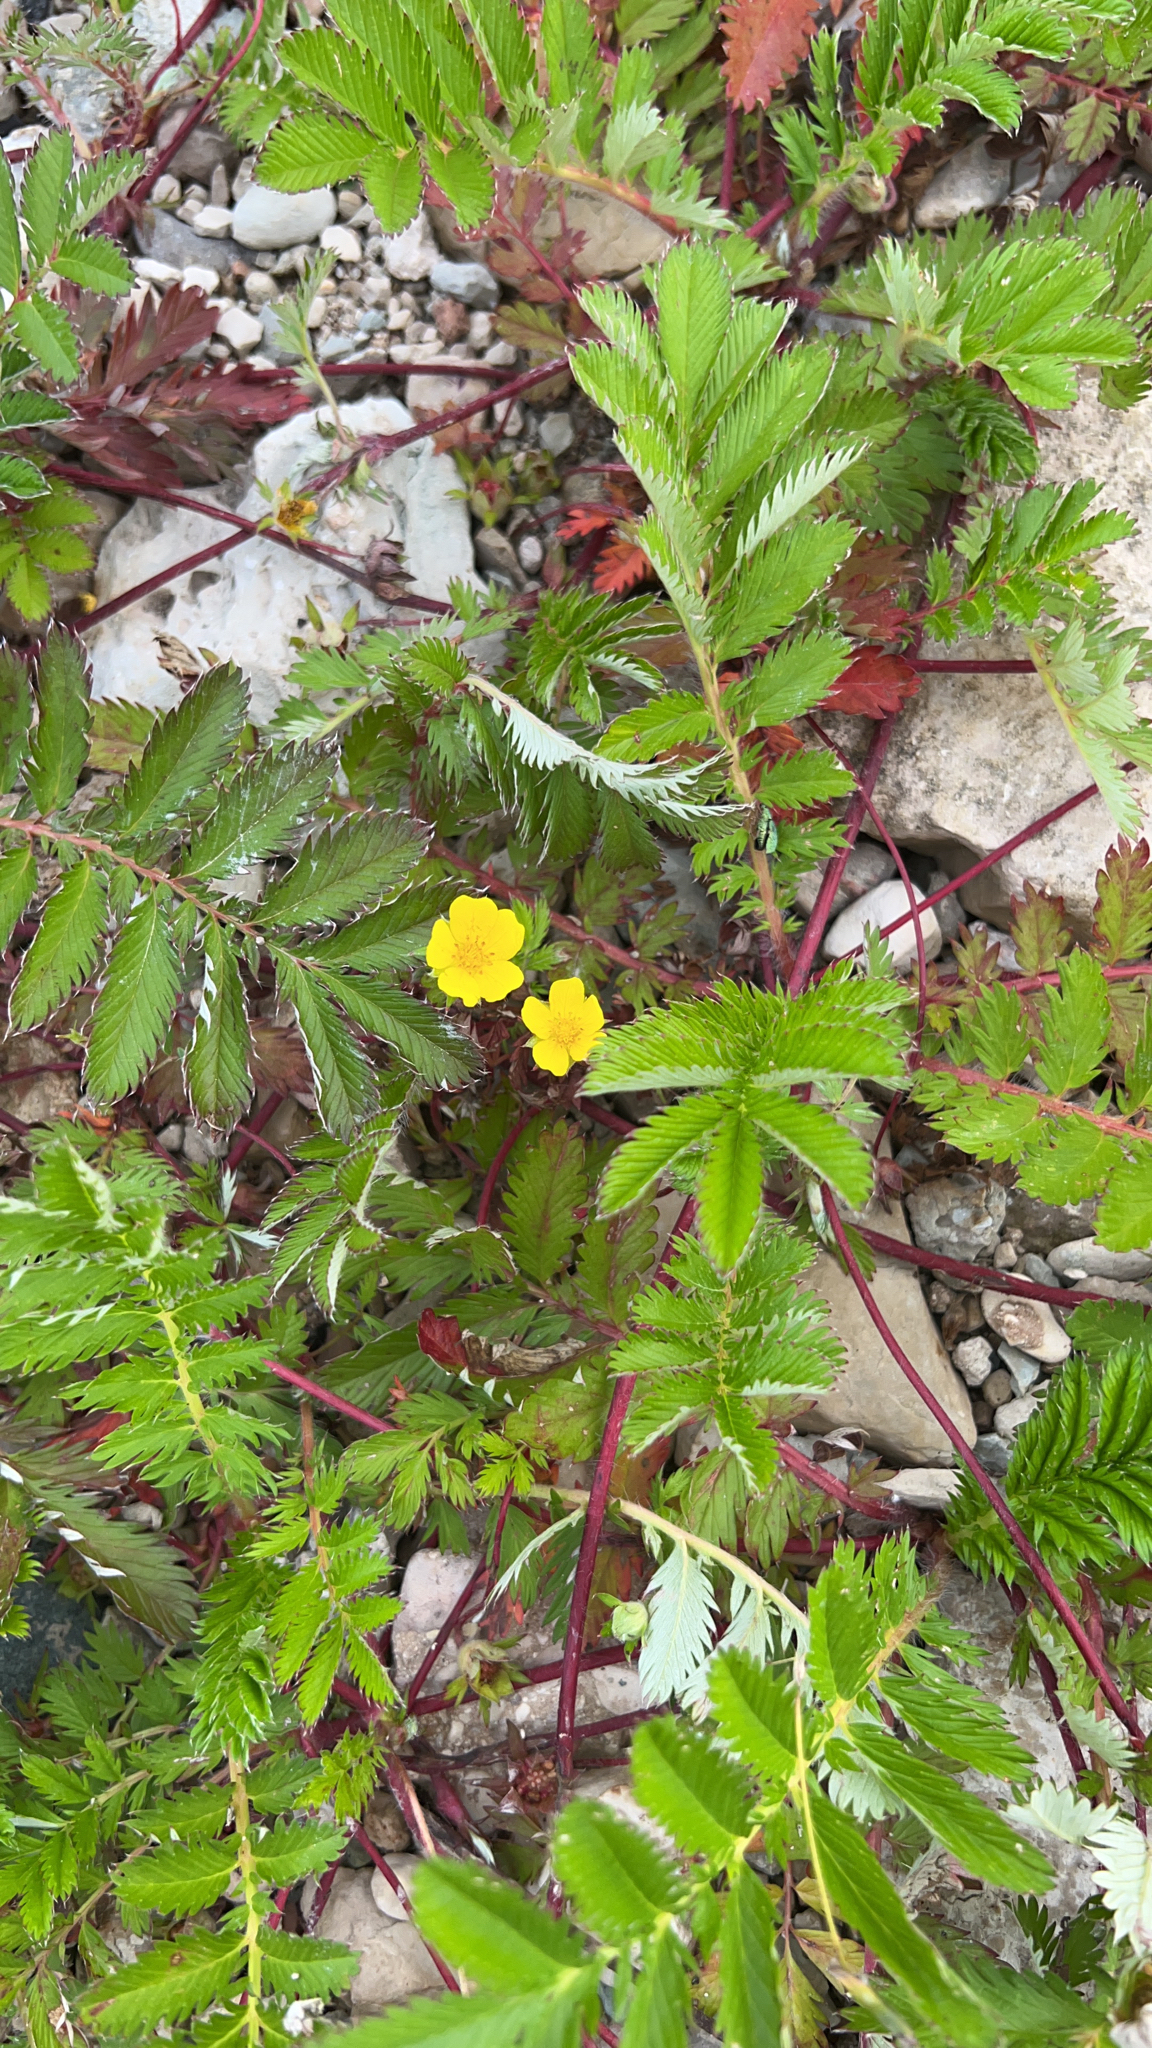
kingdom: Plantae
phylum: Tracheophyta
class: Magnoliopsida
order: Rosales
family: Rosaceae
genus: Argentina
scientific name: Argentina anserina
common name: Common silverweed
